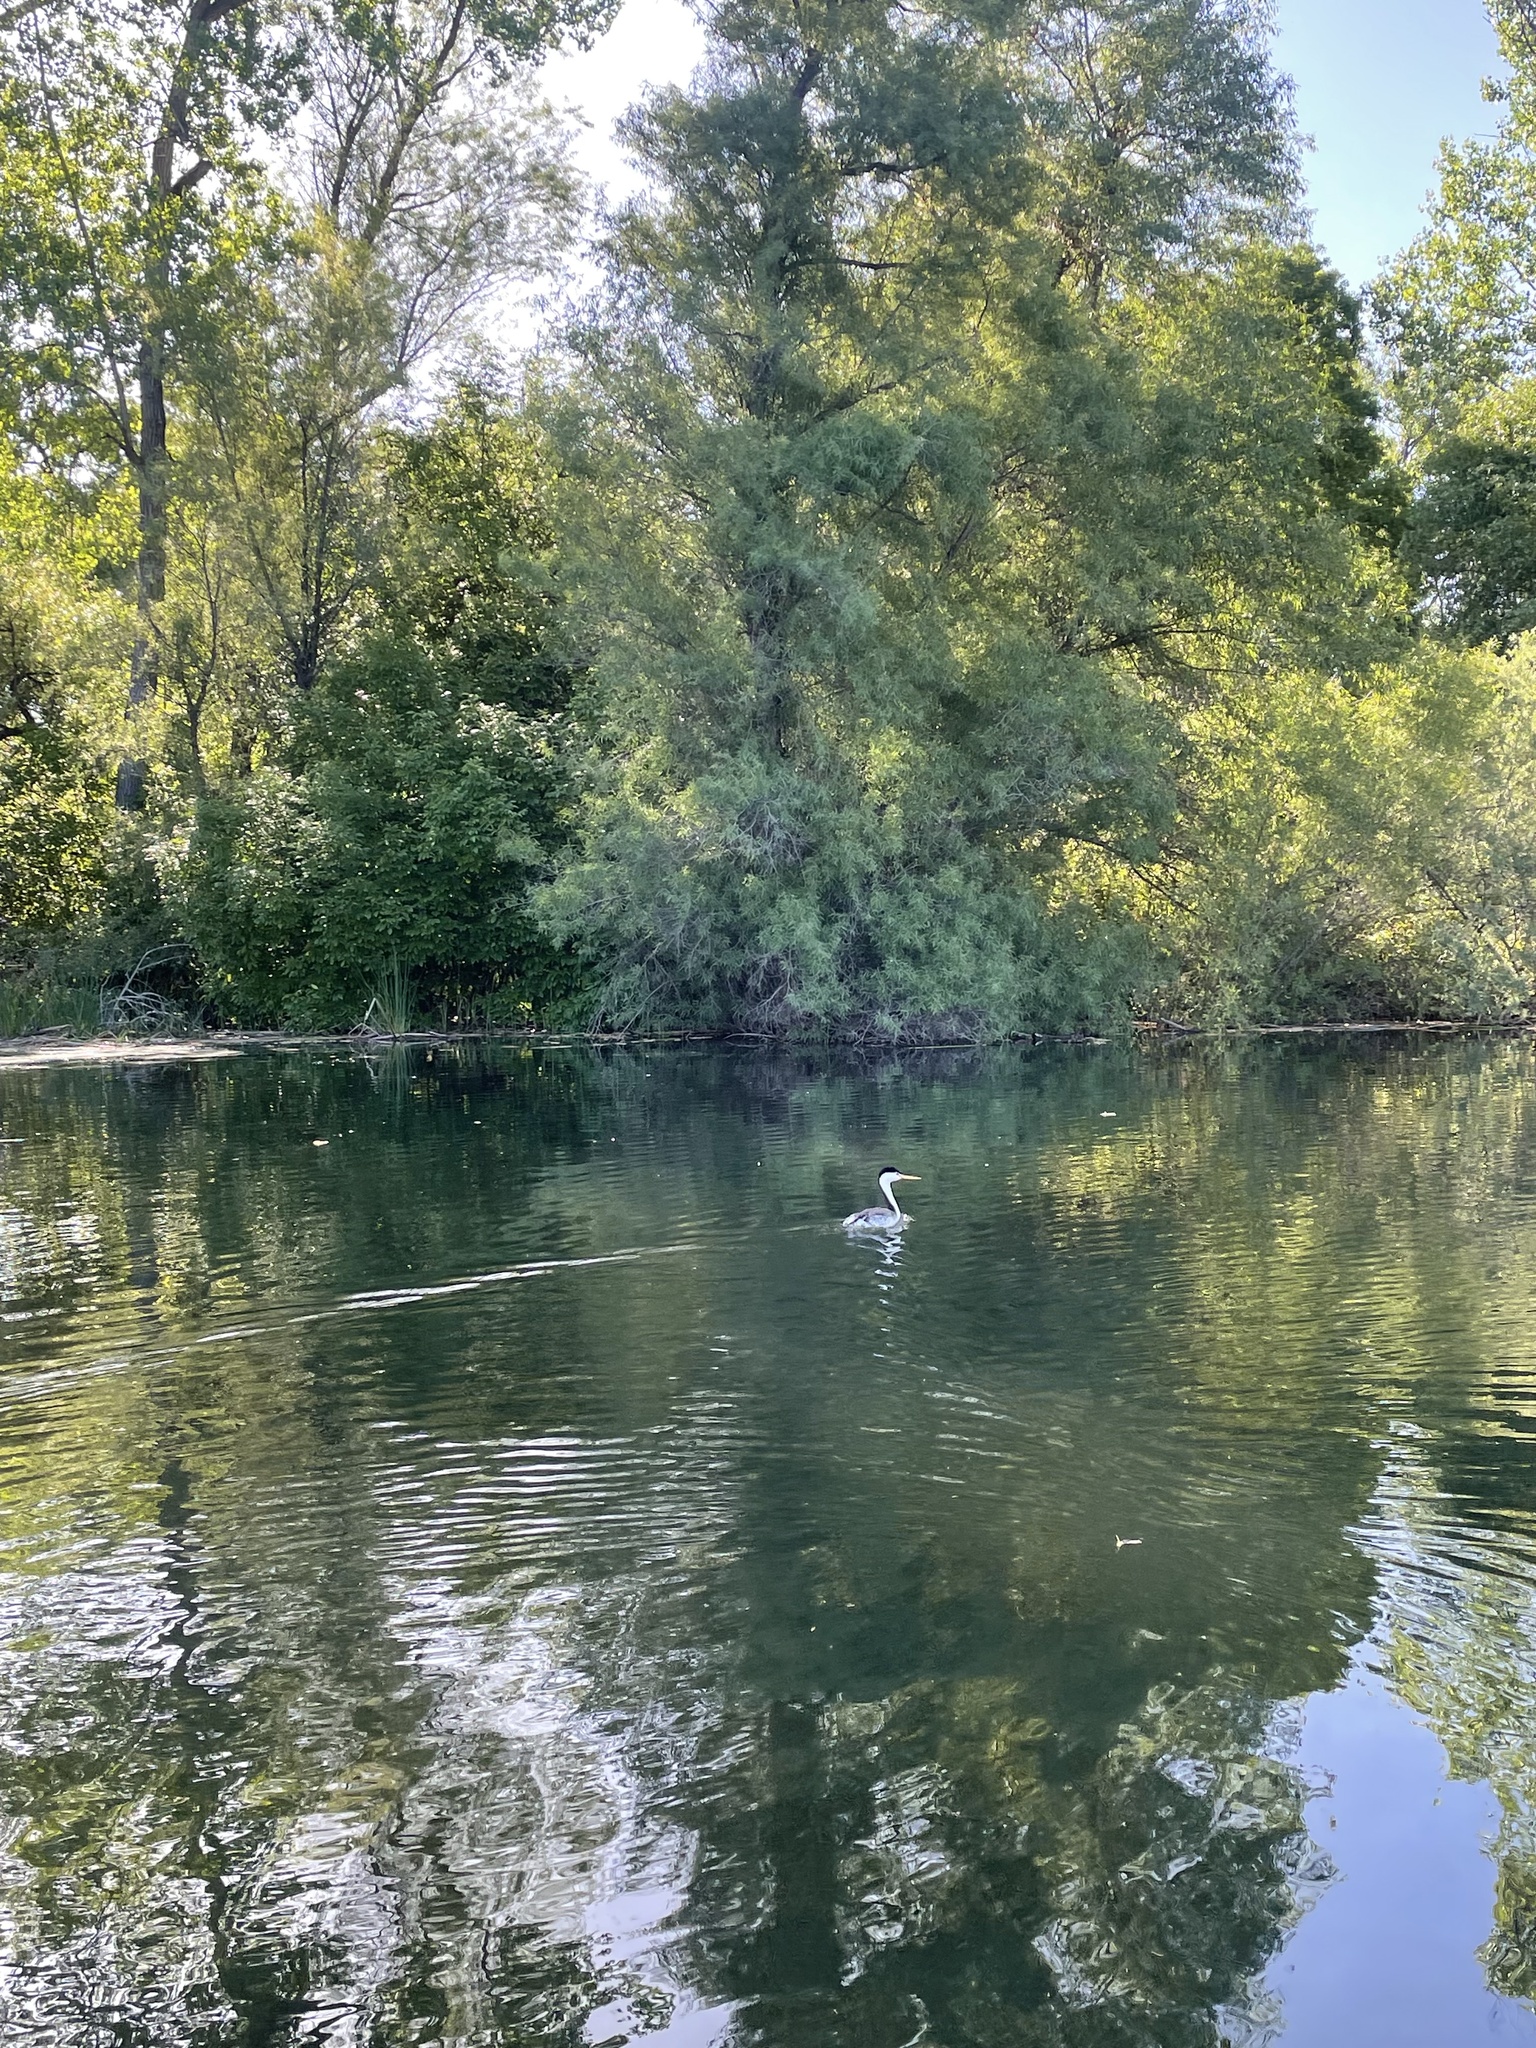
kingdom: Animalia
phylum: Chordata
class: Aves
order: Podicipediformes
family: Podicipedidae
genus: Aechmophorus
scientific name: Aechmophorus clarkii
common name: Clark's grebe
